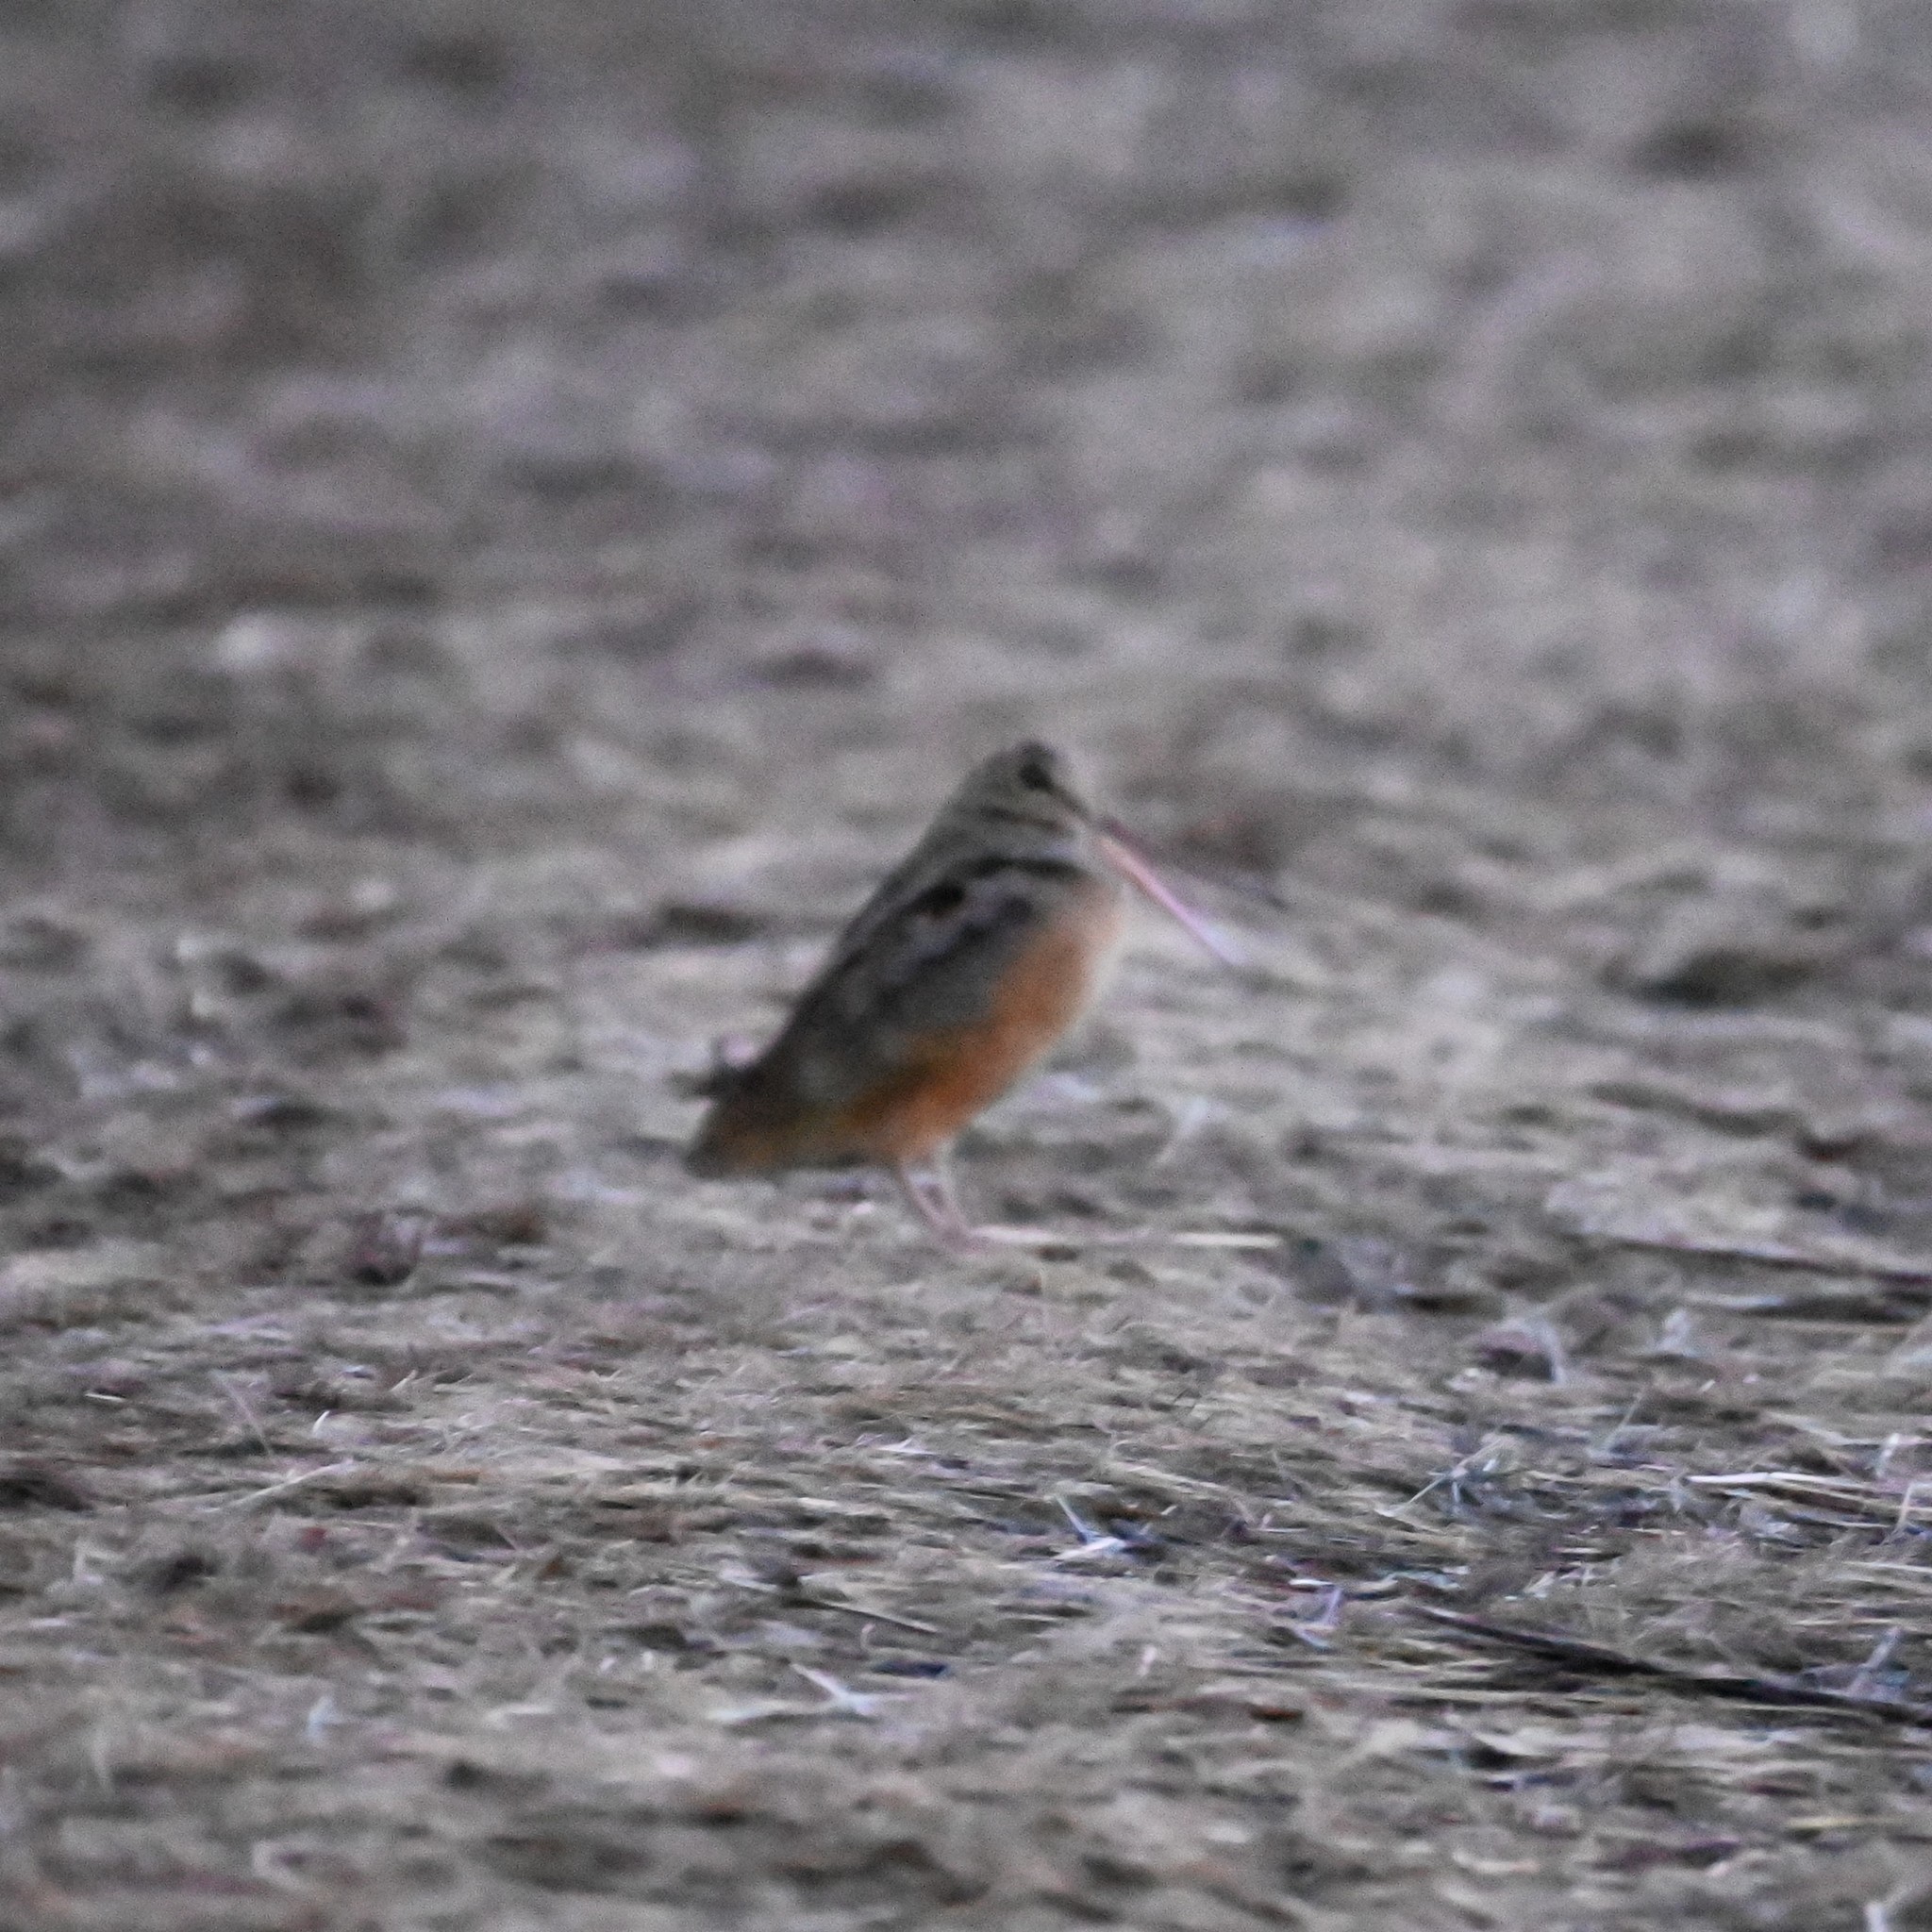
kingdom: Animalia
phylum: Chordata
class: Aves
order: Charadriiformes
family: Scolopacidae
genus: Scolopax
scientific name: Scolopax minor
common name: American woodcock
